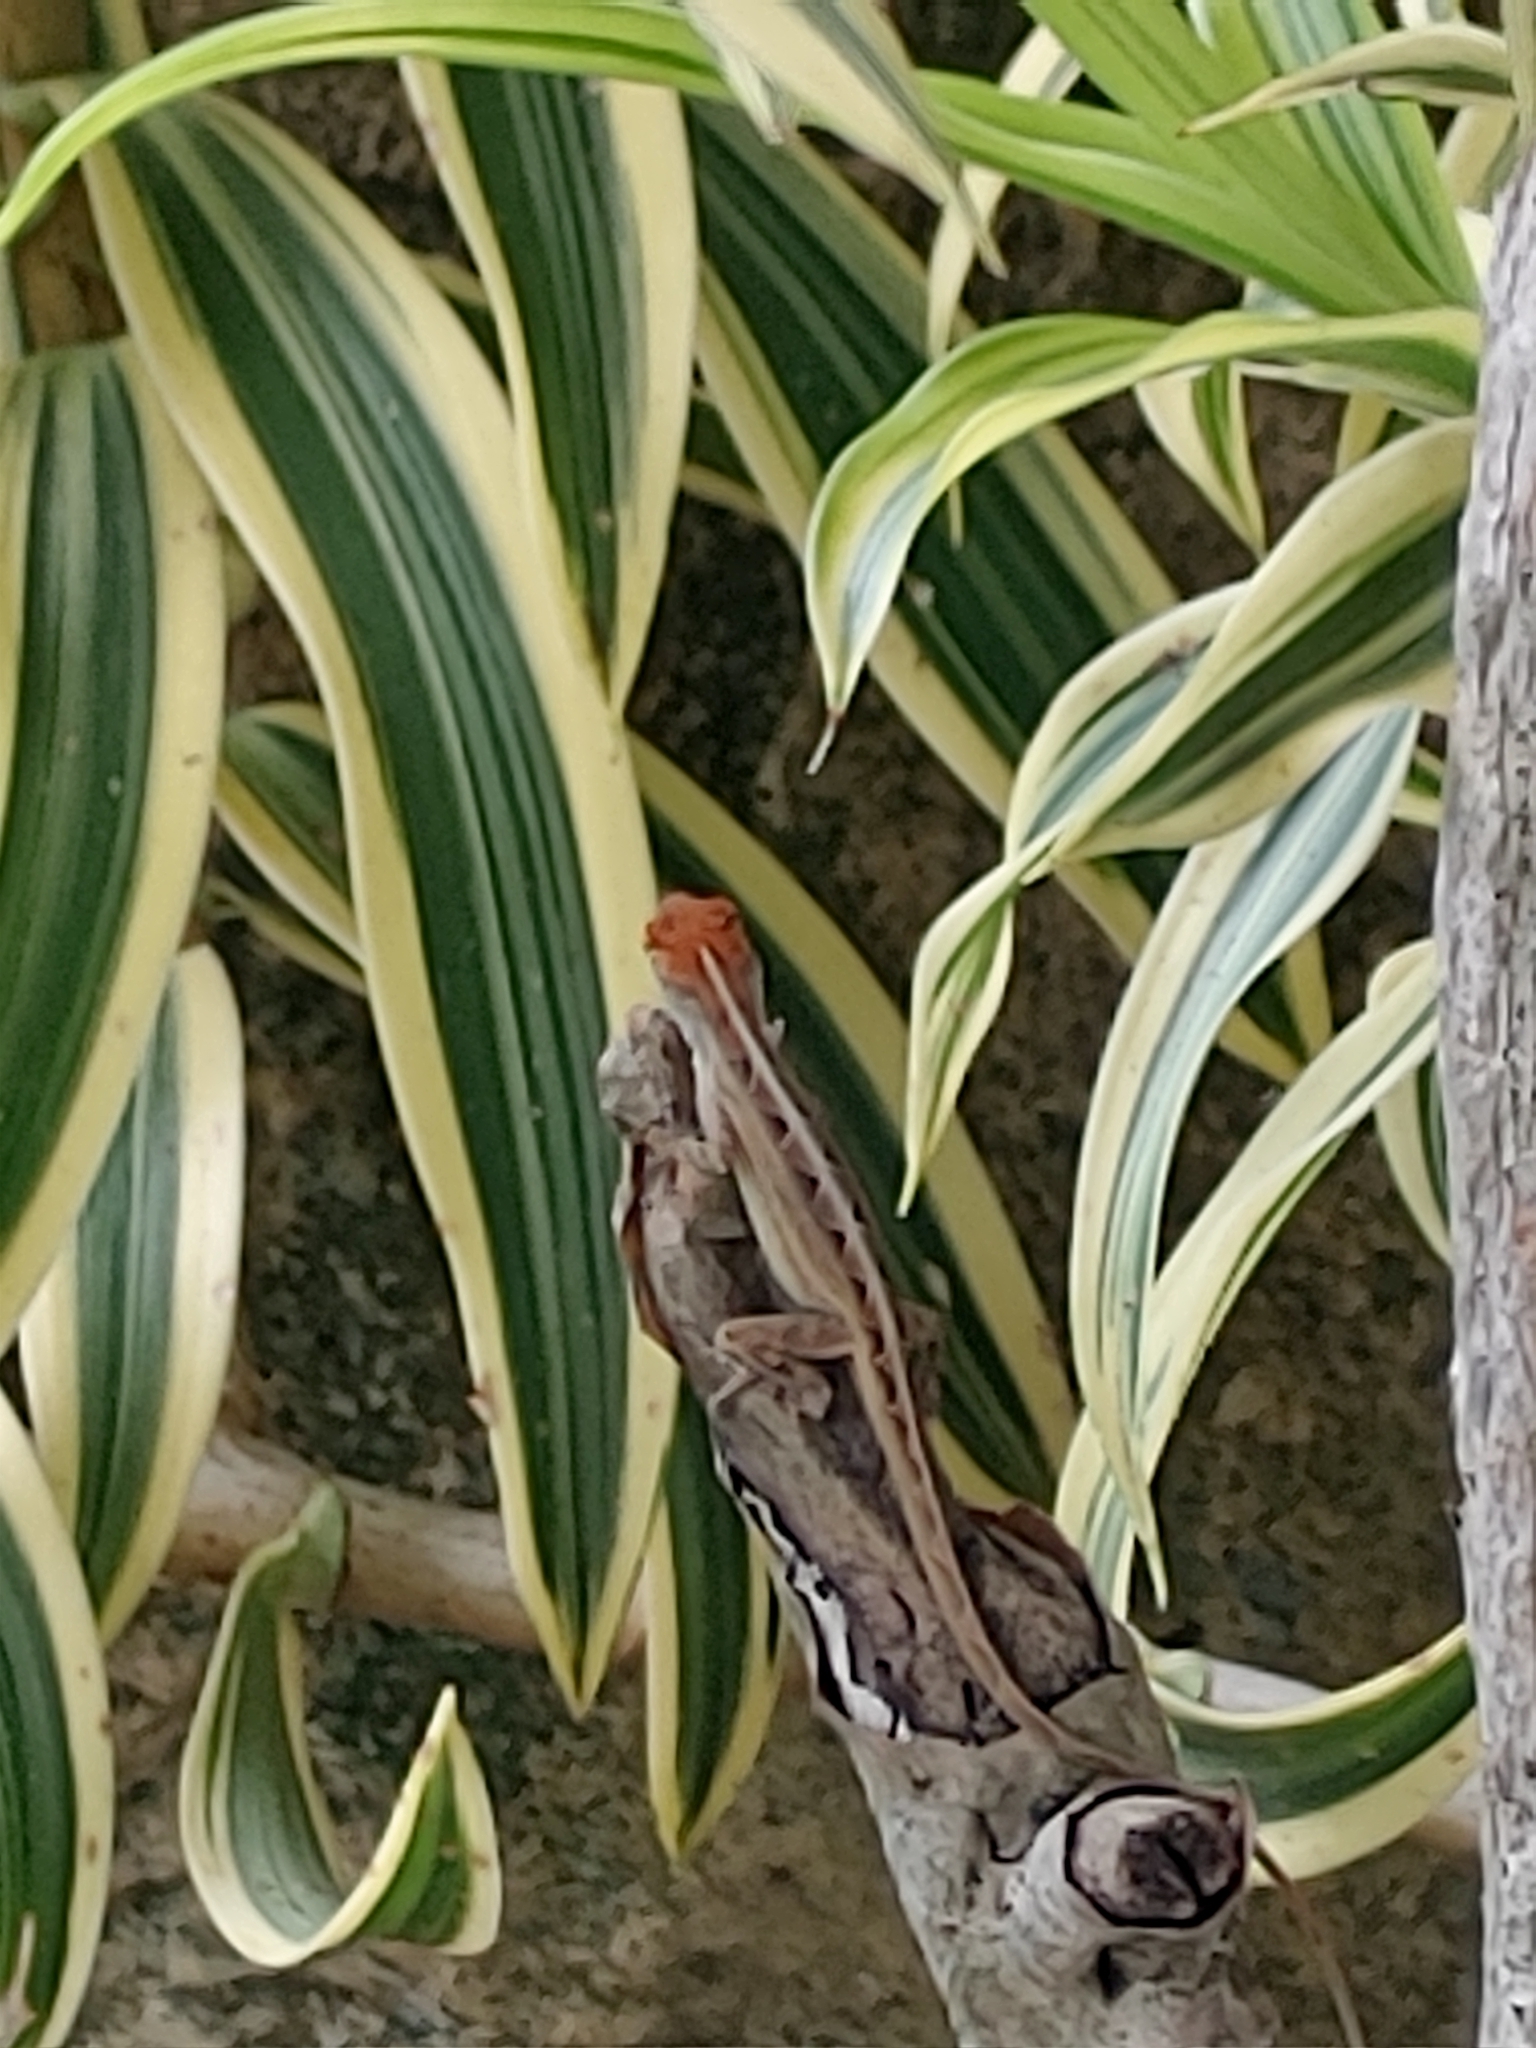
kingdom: Animalia
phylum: Chordata
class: Squamata
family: Dactyloidae
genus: Anolis
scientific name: Anolis sagrei
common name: Brown anole
